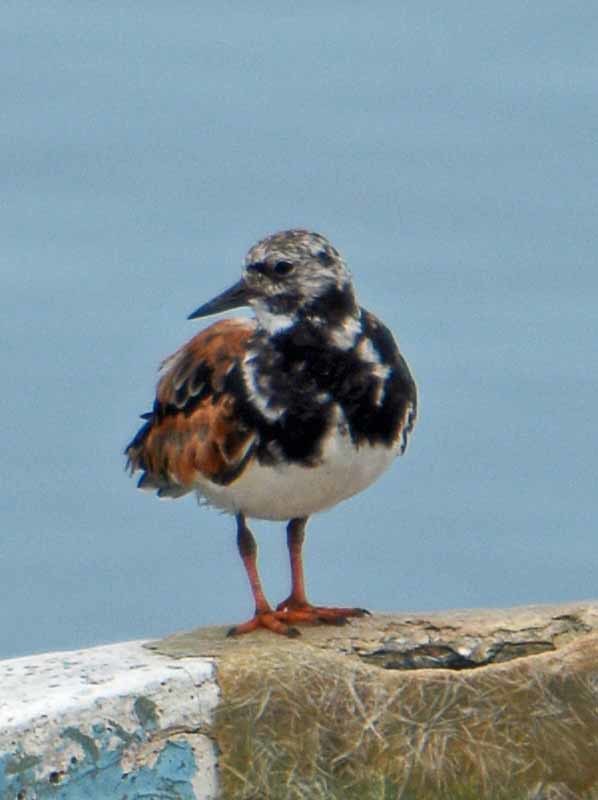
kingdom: Animalia
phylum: Chordata
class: Aves
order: Charadriiformes
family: Scolopacidae
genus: Arenaria
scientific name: Arenaria interpres
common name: Ruddy turnstone
